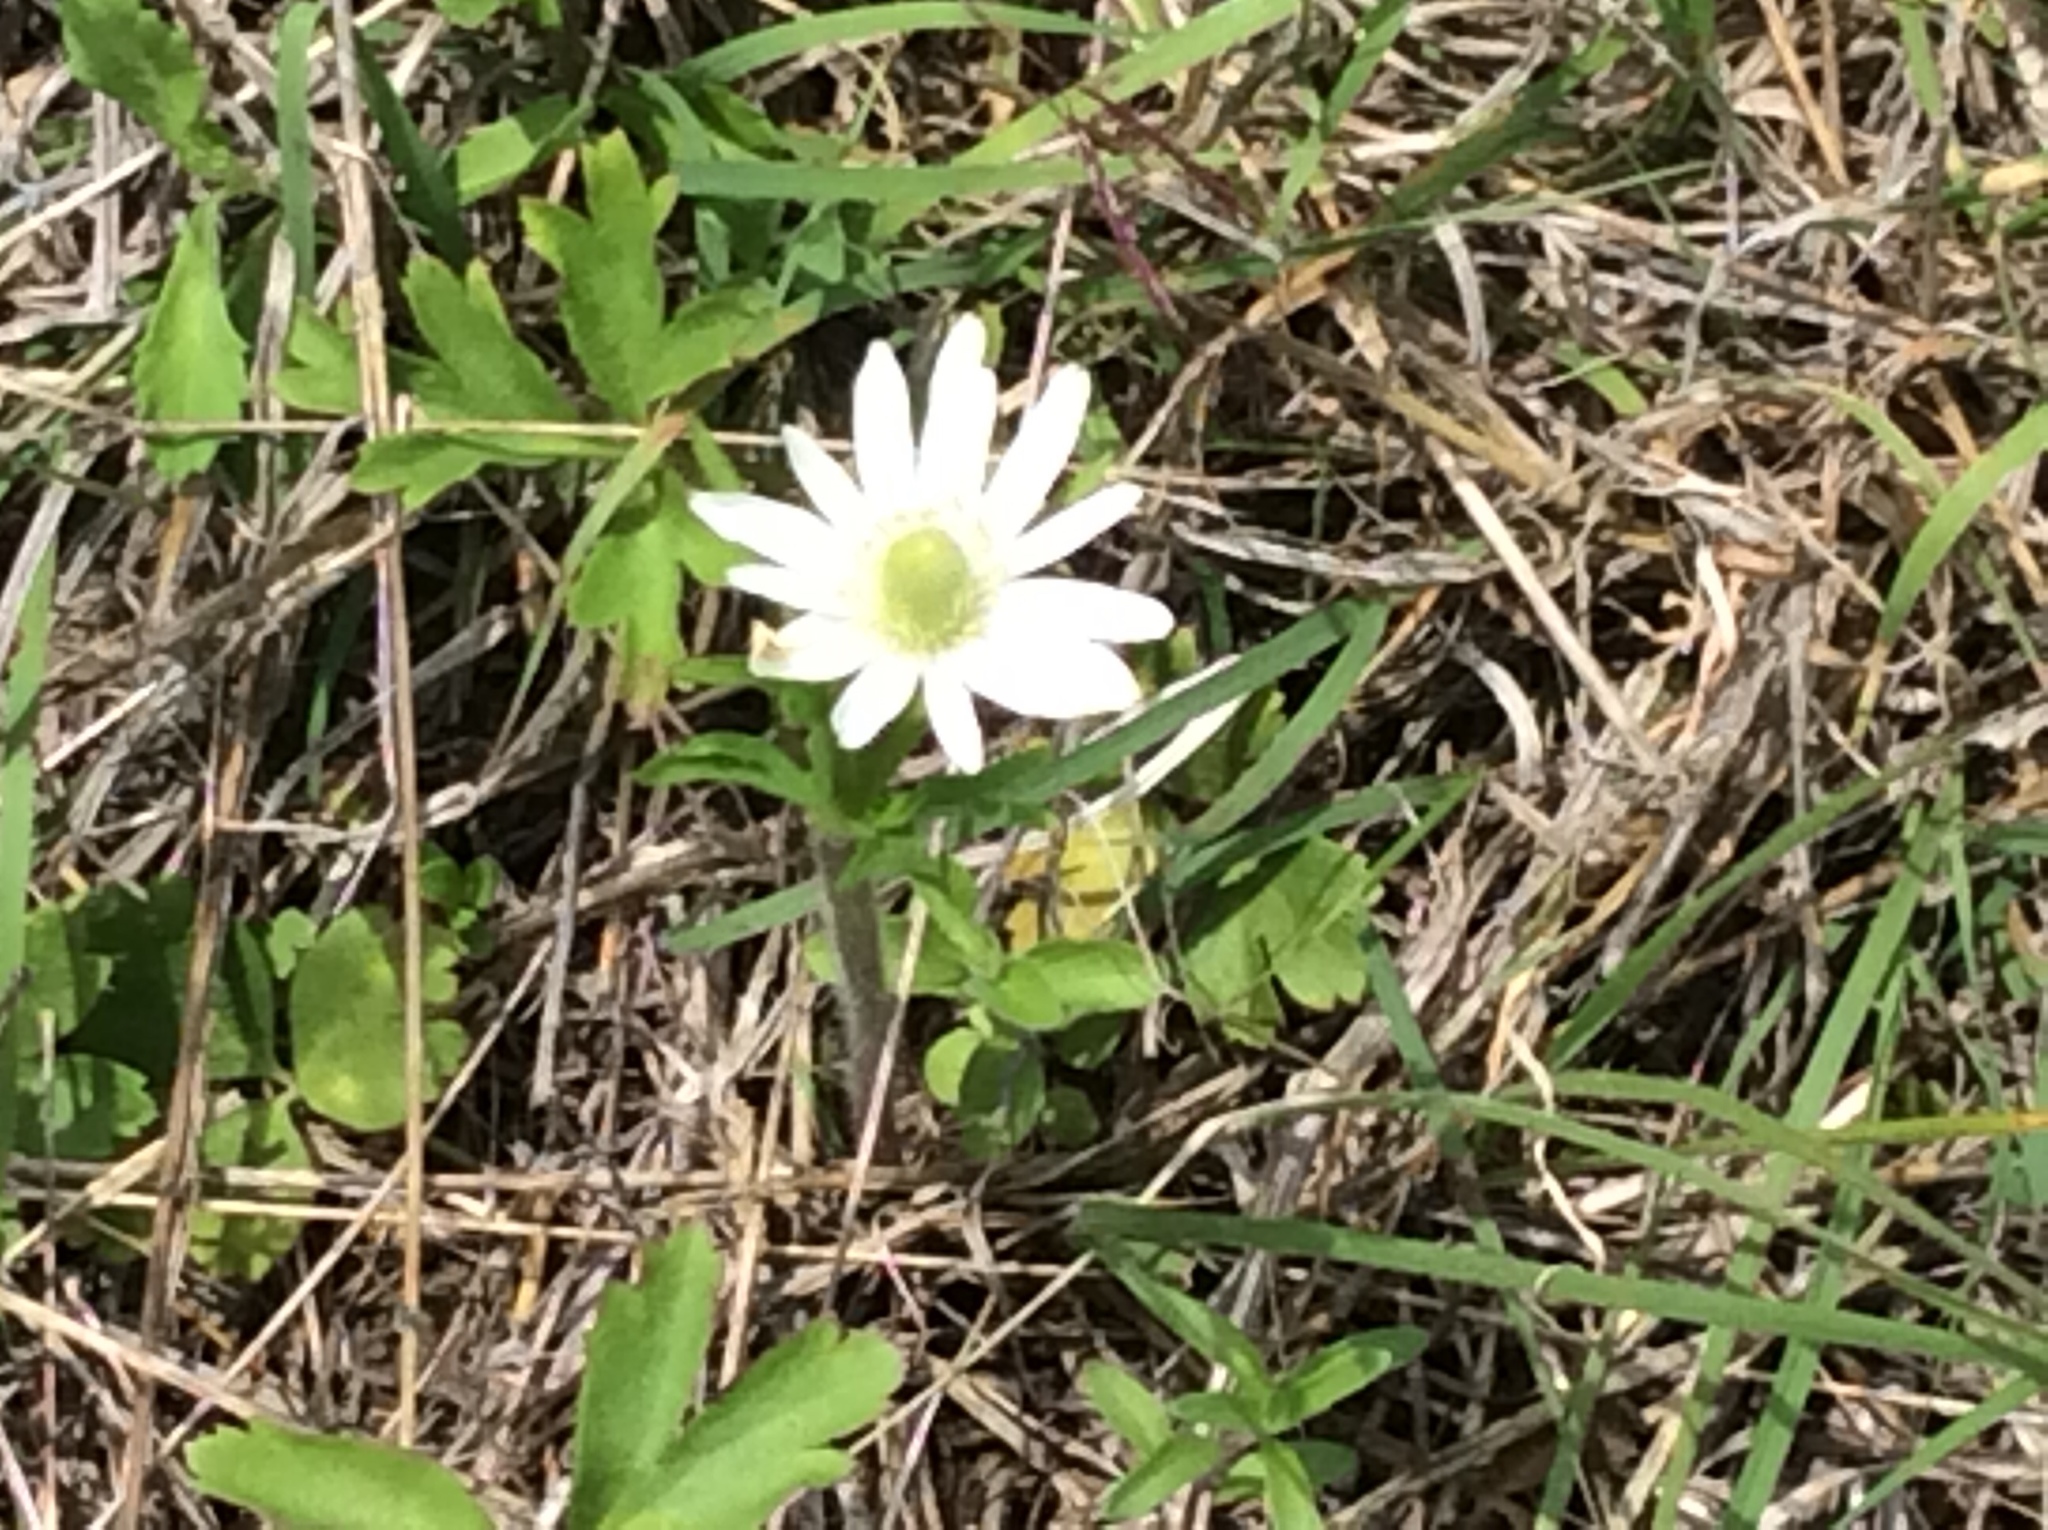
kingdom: Plantae
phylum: Tracheophyta
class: Magnoliopsida
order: Ranunculales
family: Ranunculaceae
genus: Anemone
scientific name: Anemone berlandieri
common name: Ten-petal anemone
